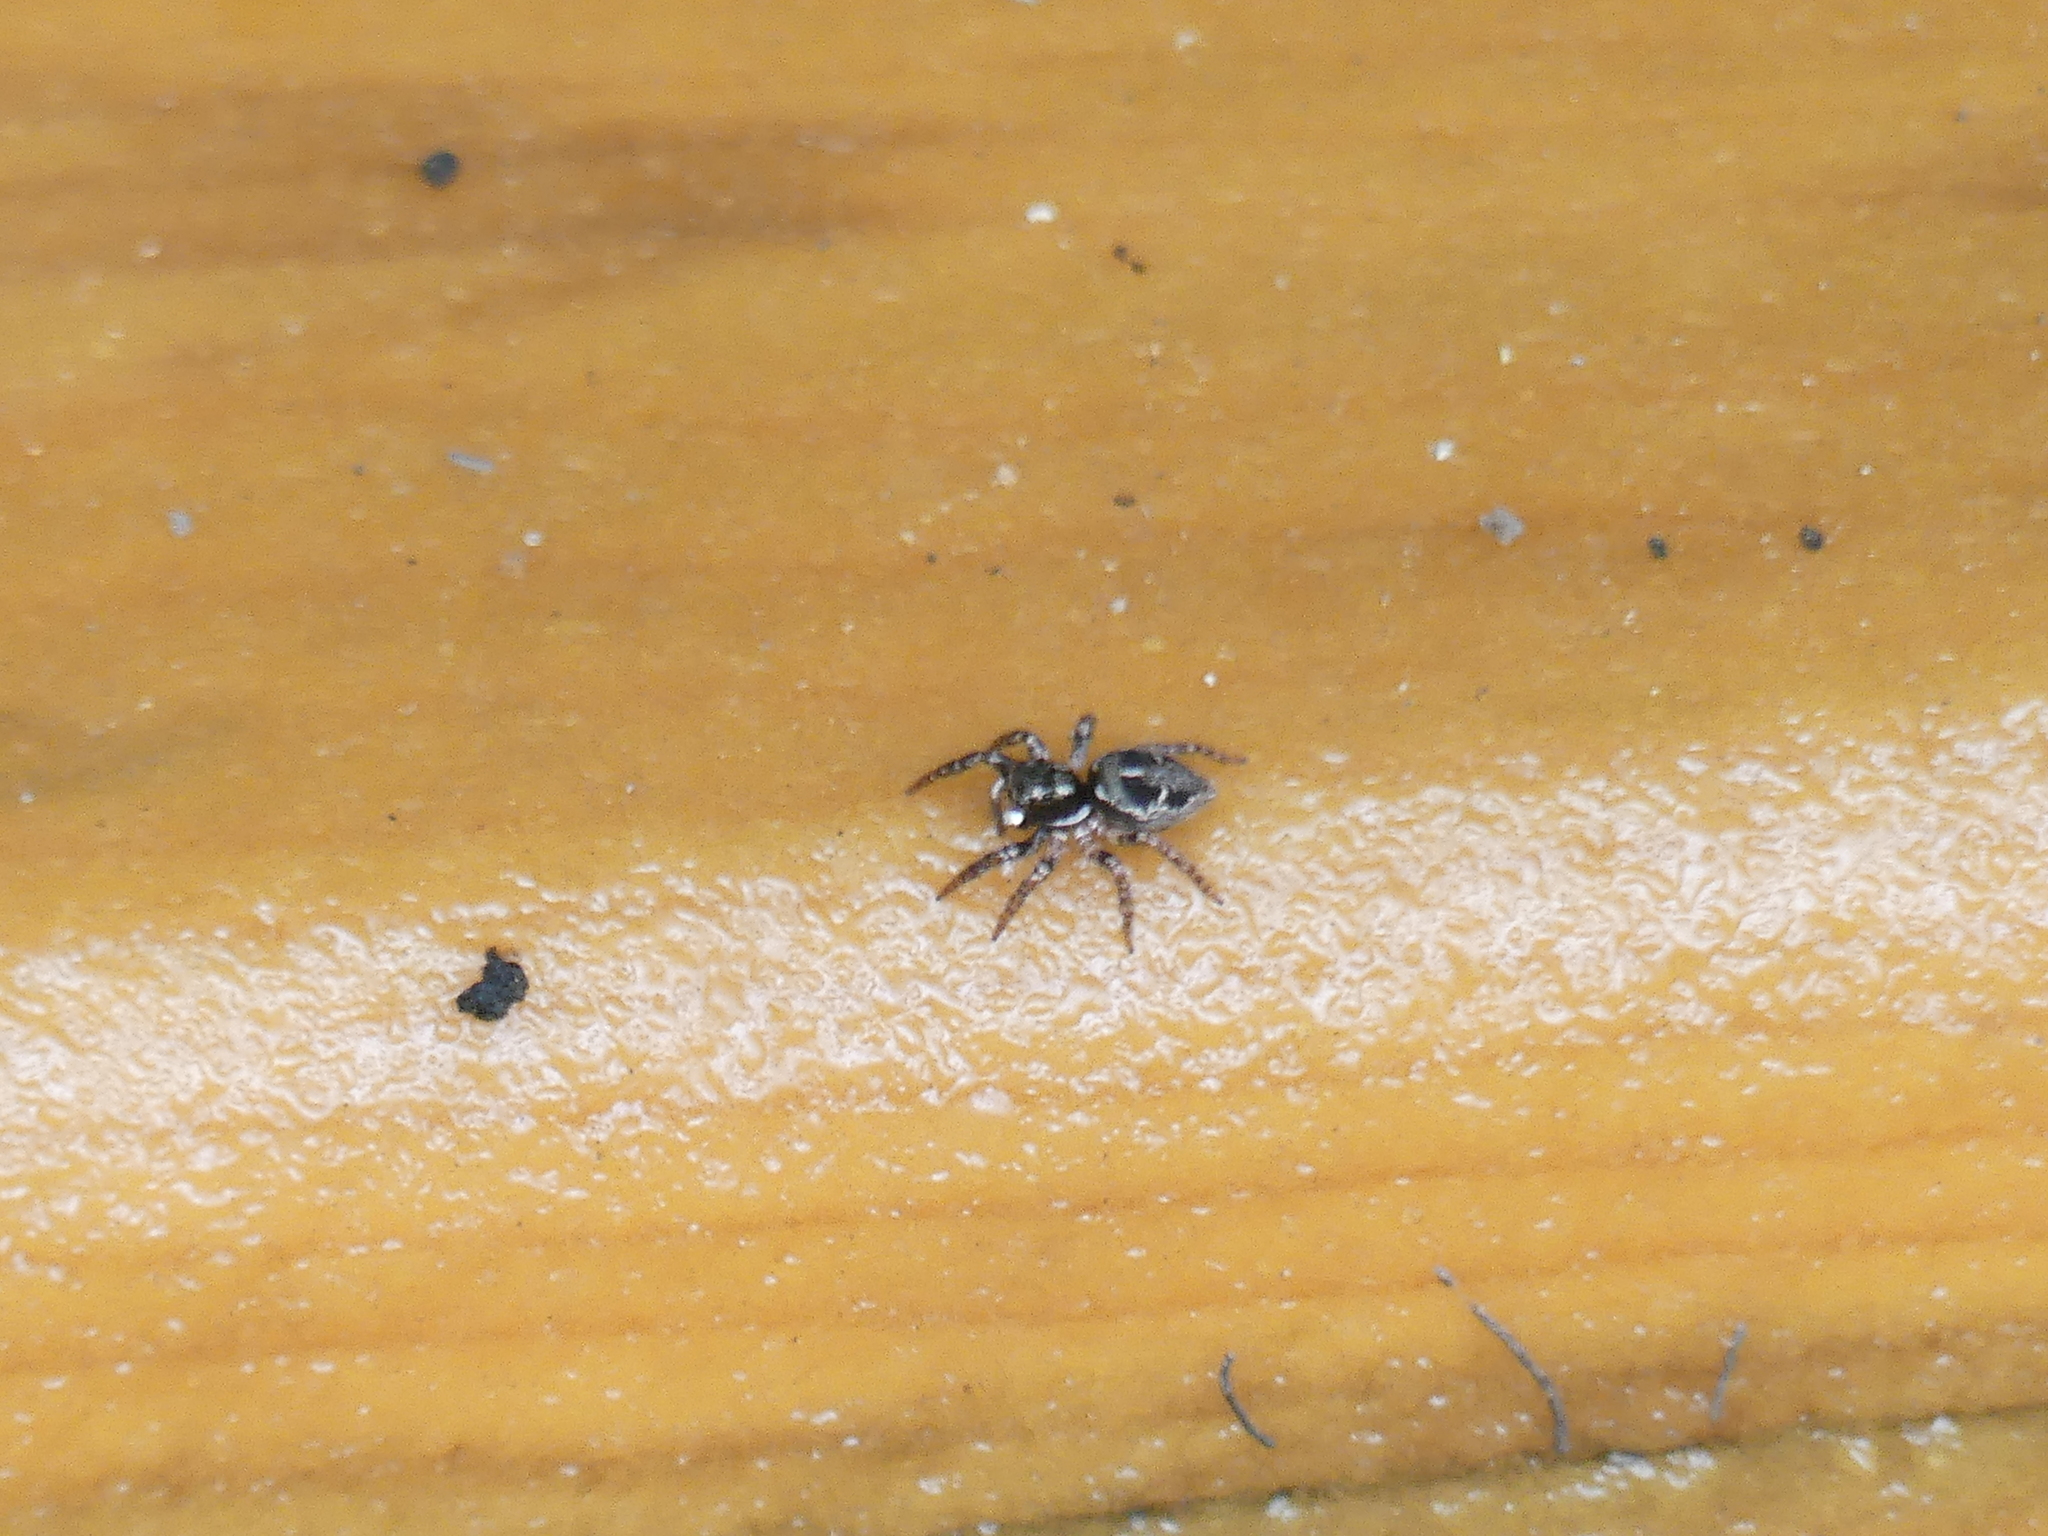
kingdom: Animalia
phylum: Arthropoda
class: Arachnida
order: Araneae
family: Salticidae
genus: Anasaitis
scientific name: Anasaitis canosa
